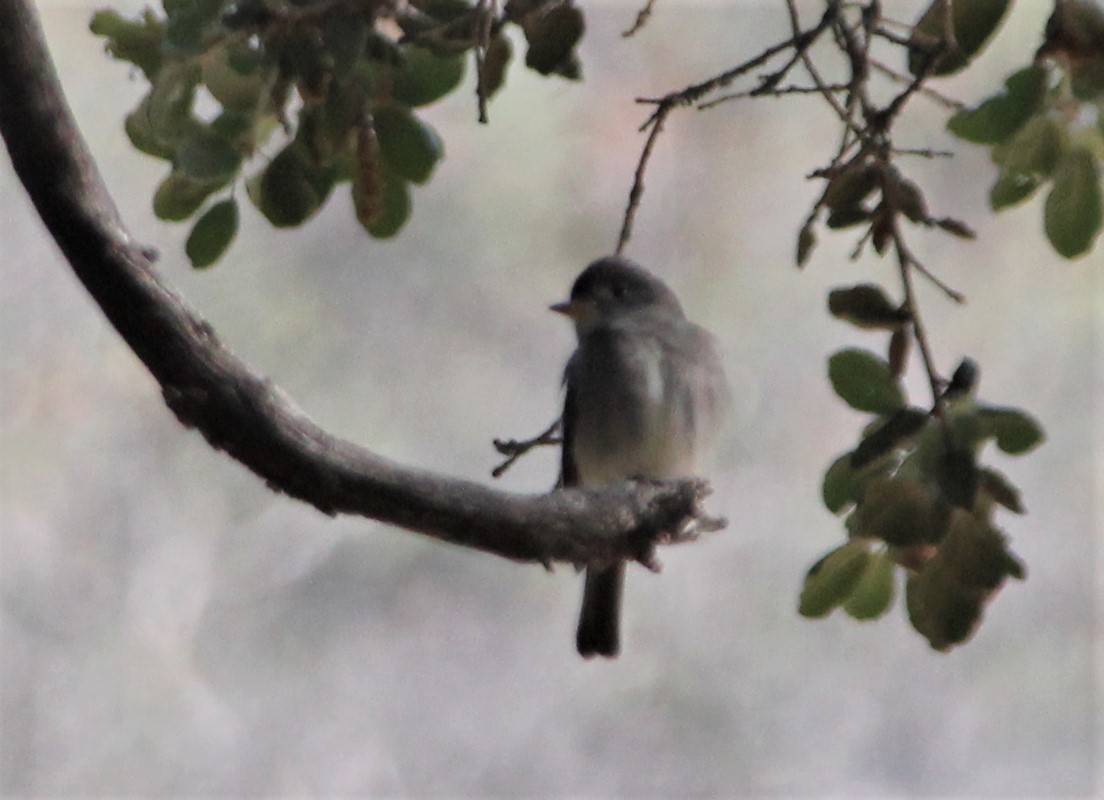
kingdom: Animalia
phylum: Chordata
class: Aves
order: Passeriformes
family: Tyrannidae
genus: Contopus
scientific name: Contopus sordidulus
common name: Western wood-pewee
